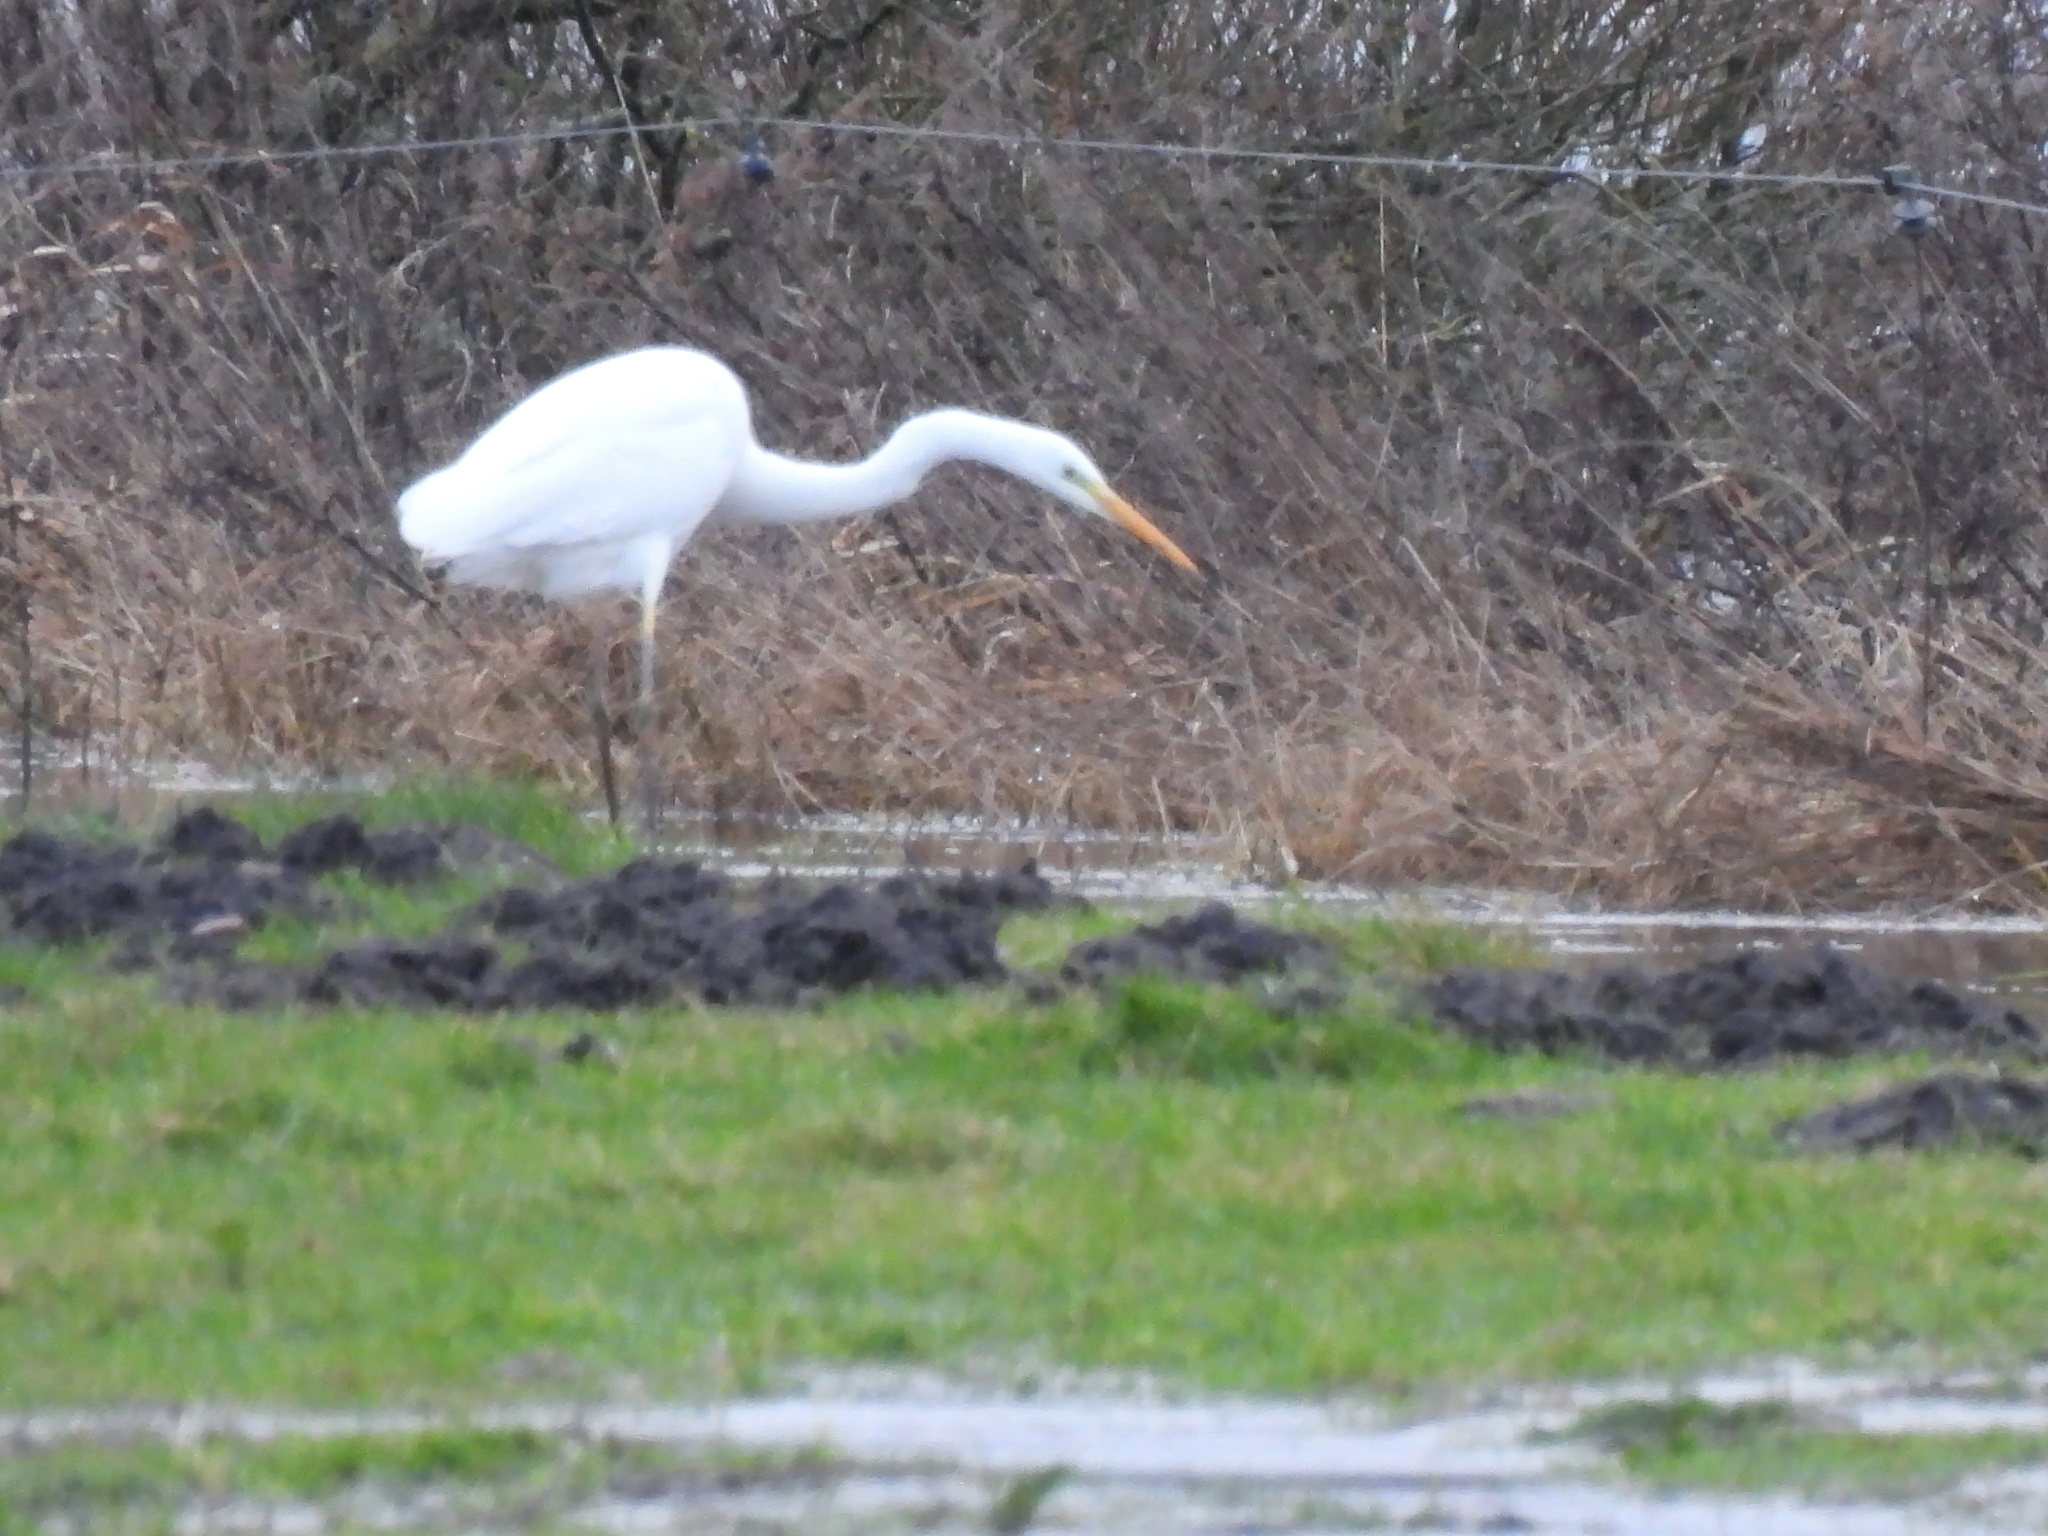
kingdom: Animalia
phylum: Chordata
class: Aves
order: Pelecaniformes
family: Ardeidae
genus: Ardea
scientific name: Ardea alba
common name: Great egret
